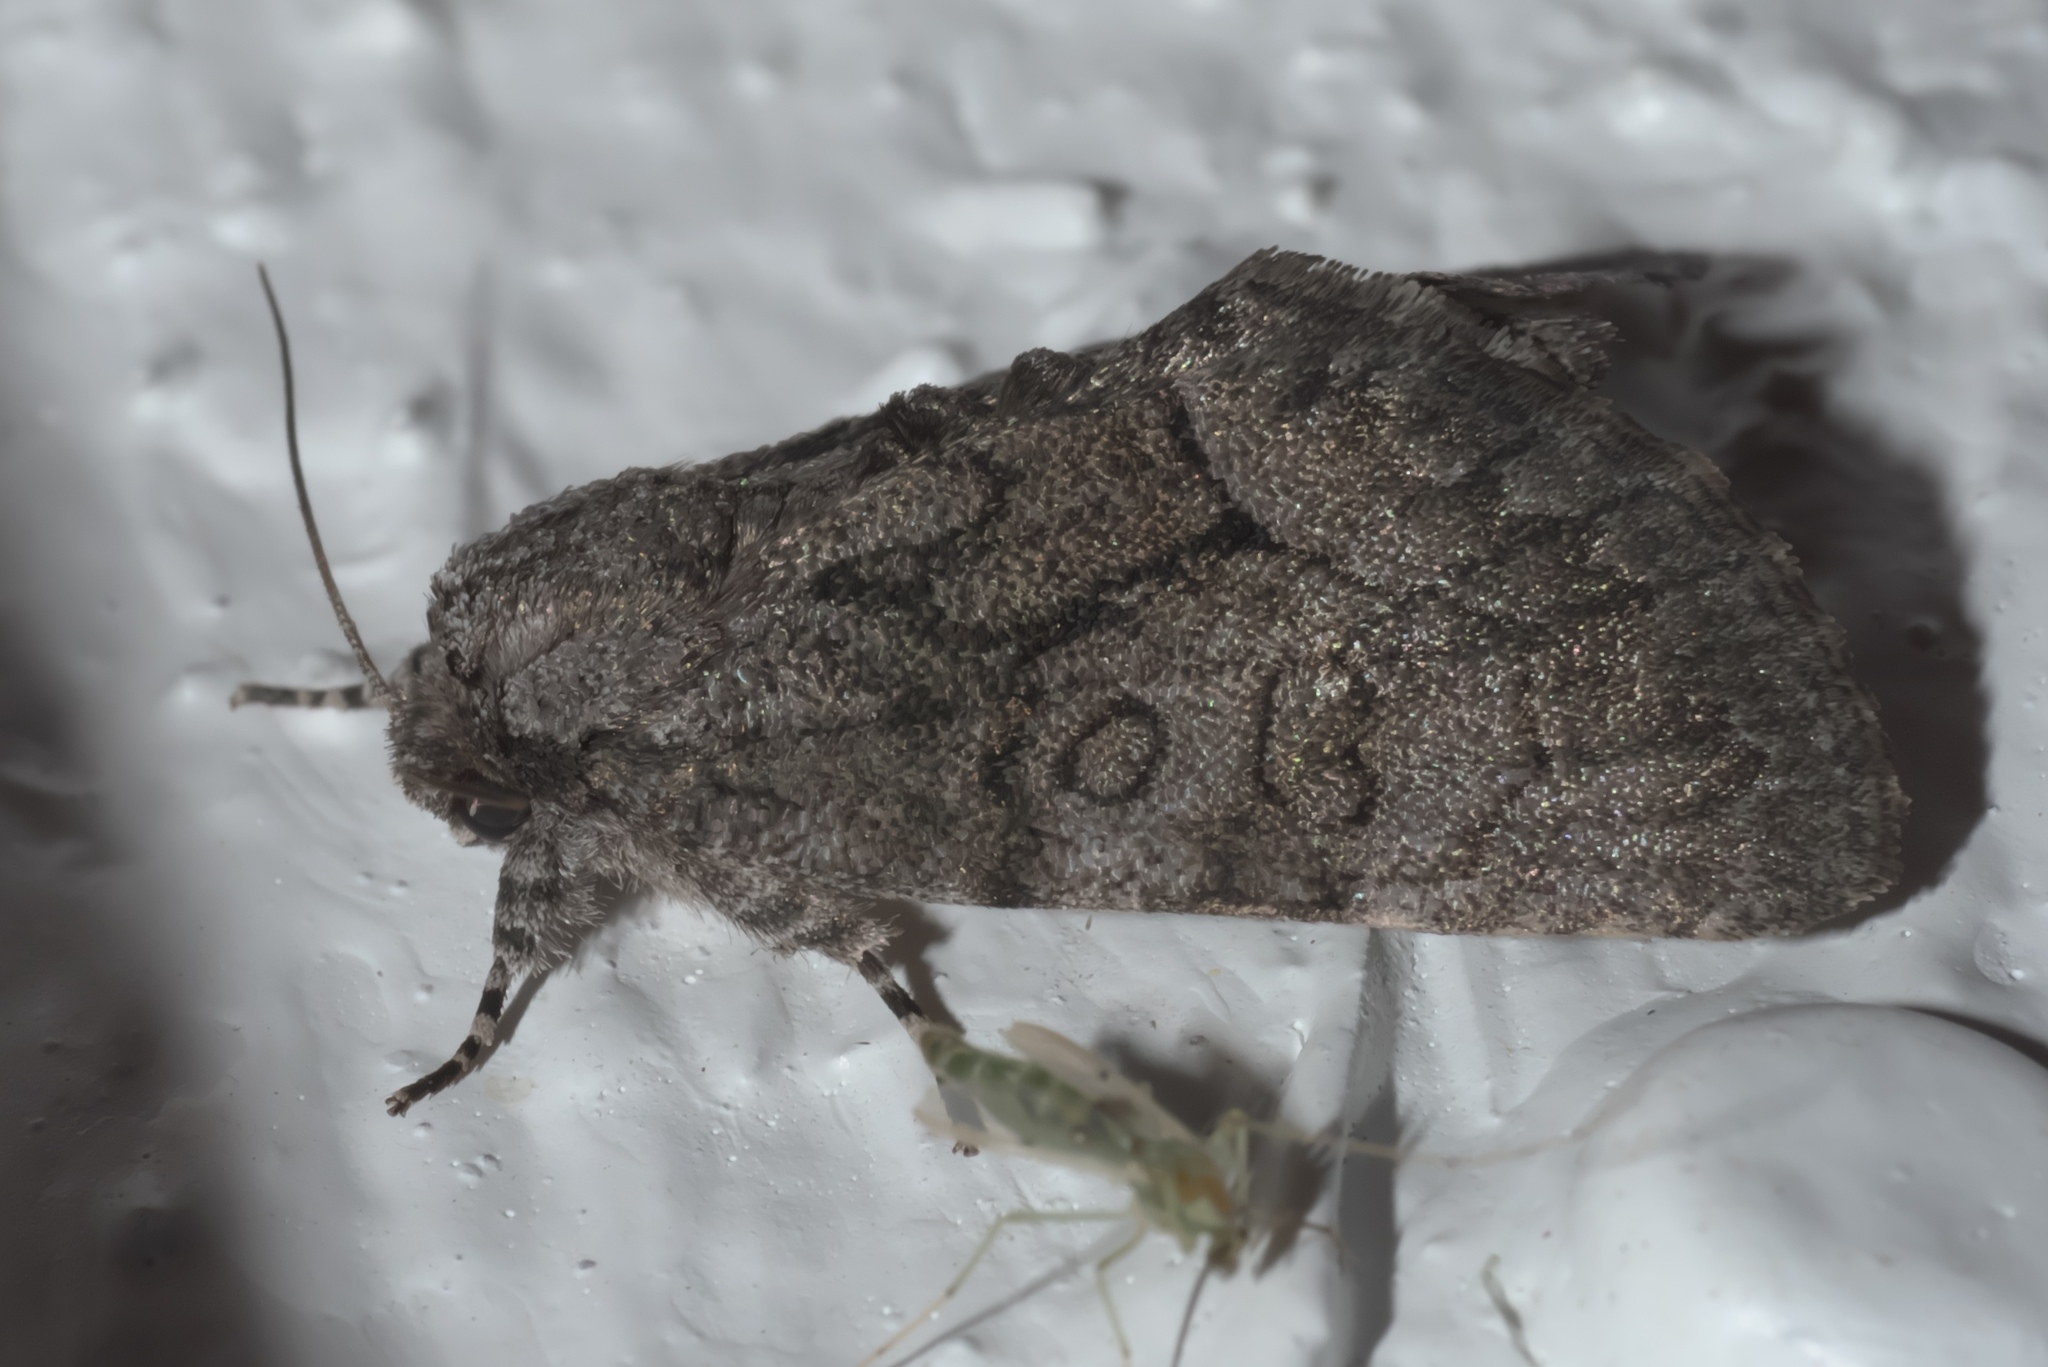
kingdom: Animalia
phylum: Arthropoda
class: Insecta
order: Lepidoptera
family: Noctuidae
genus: Raphia
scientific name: Raphia frater
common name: Brother
